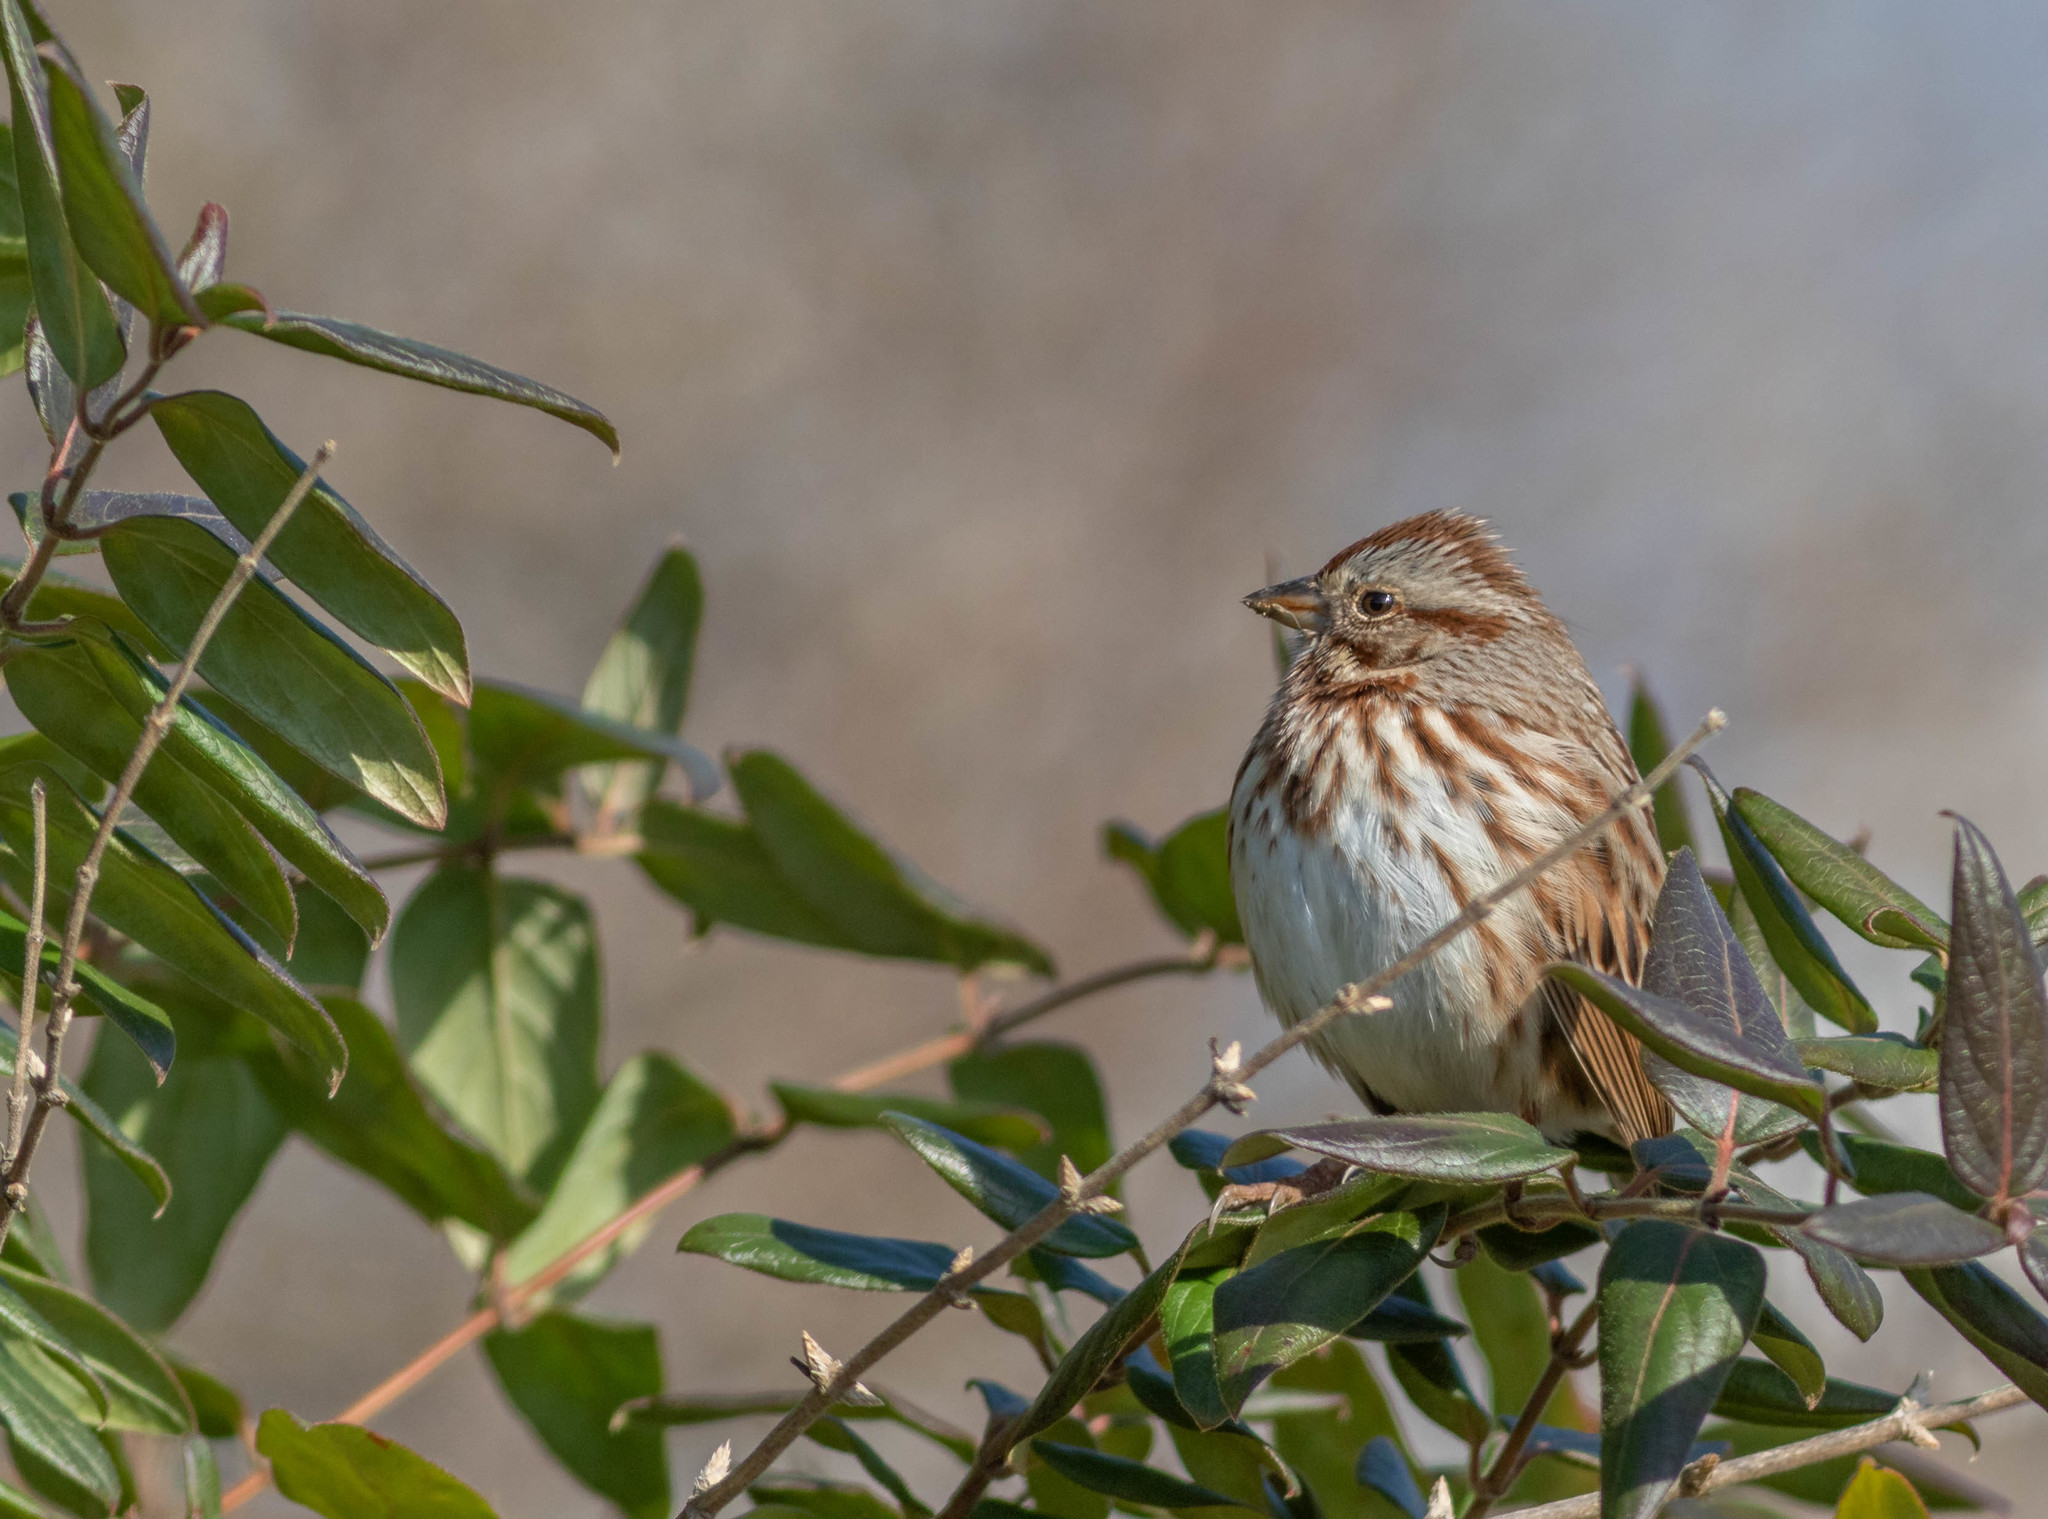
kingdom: Animalia
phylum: Chordata
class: Aves
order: Passeriformes
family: Passerellidae
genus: Melospiza
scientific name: Melospiza melodia
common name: Song sparrow
